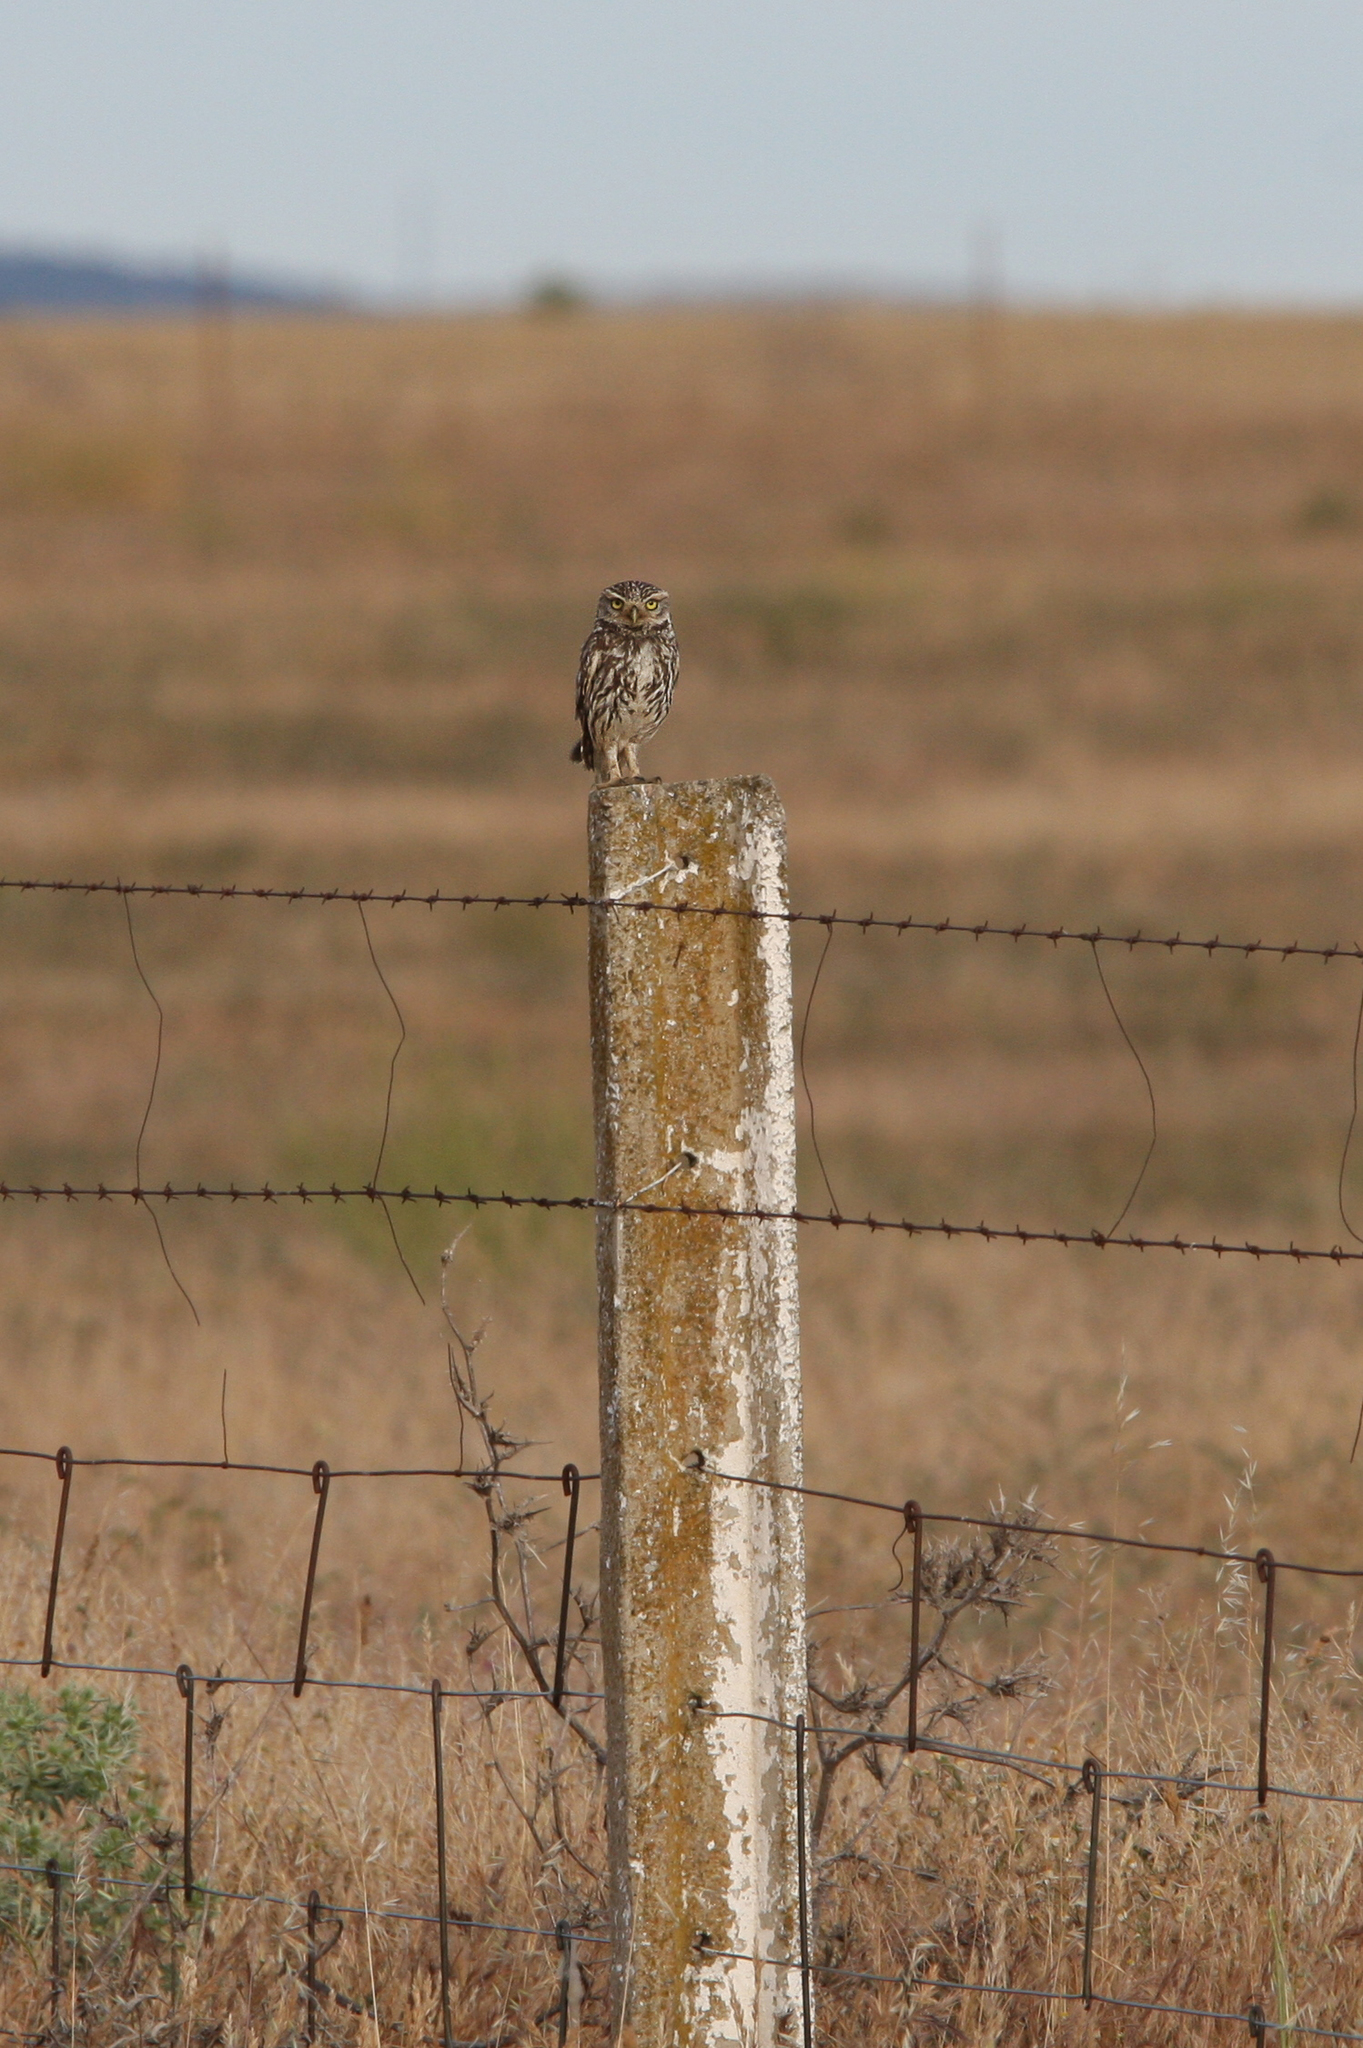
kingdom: Animalia
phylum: Chordata
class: Aves
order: Strigiformes
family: Strigidae
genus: Athene
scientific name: Athene noctua
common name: Little owl
